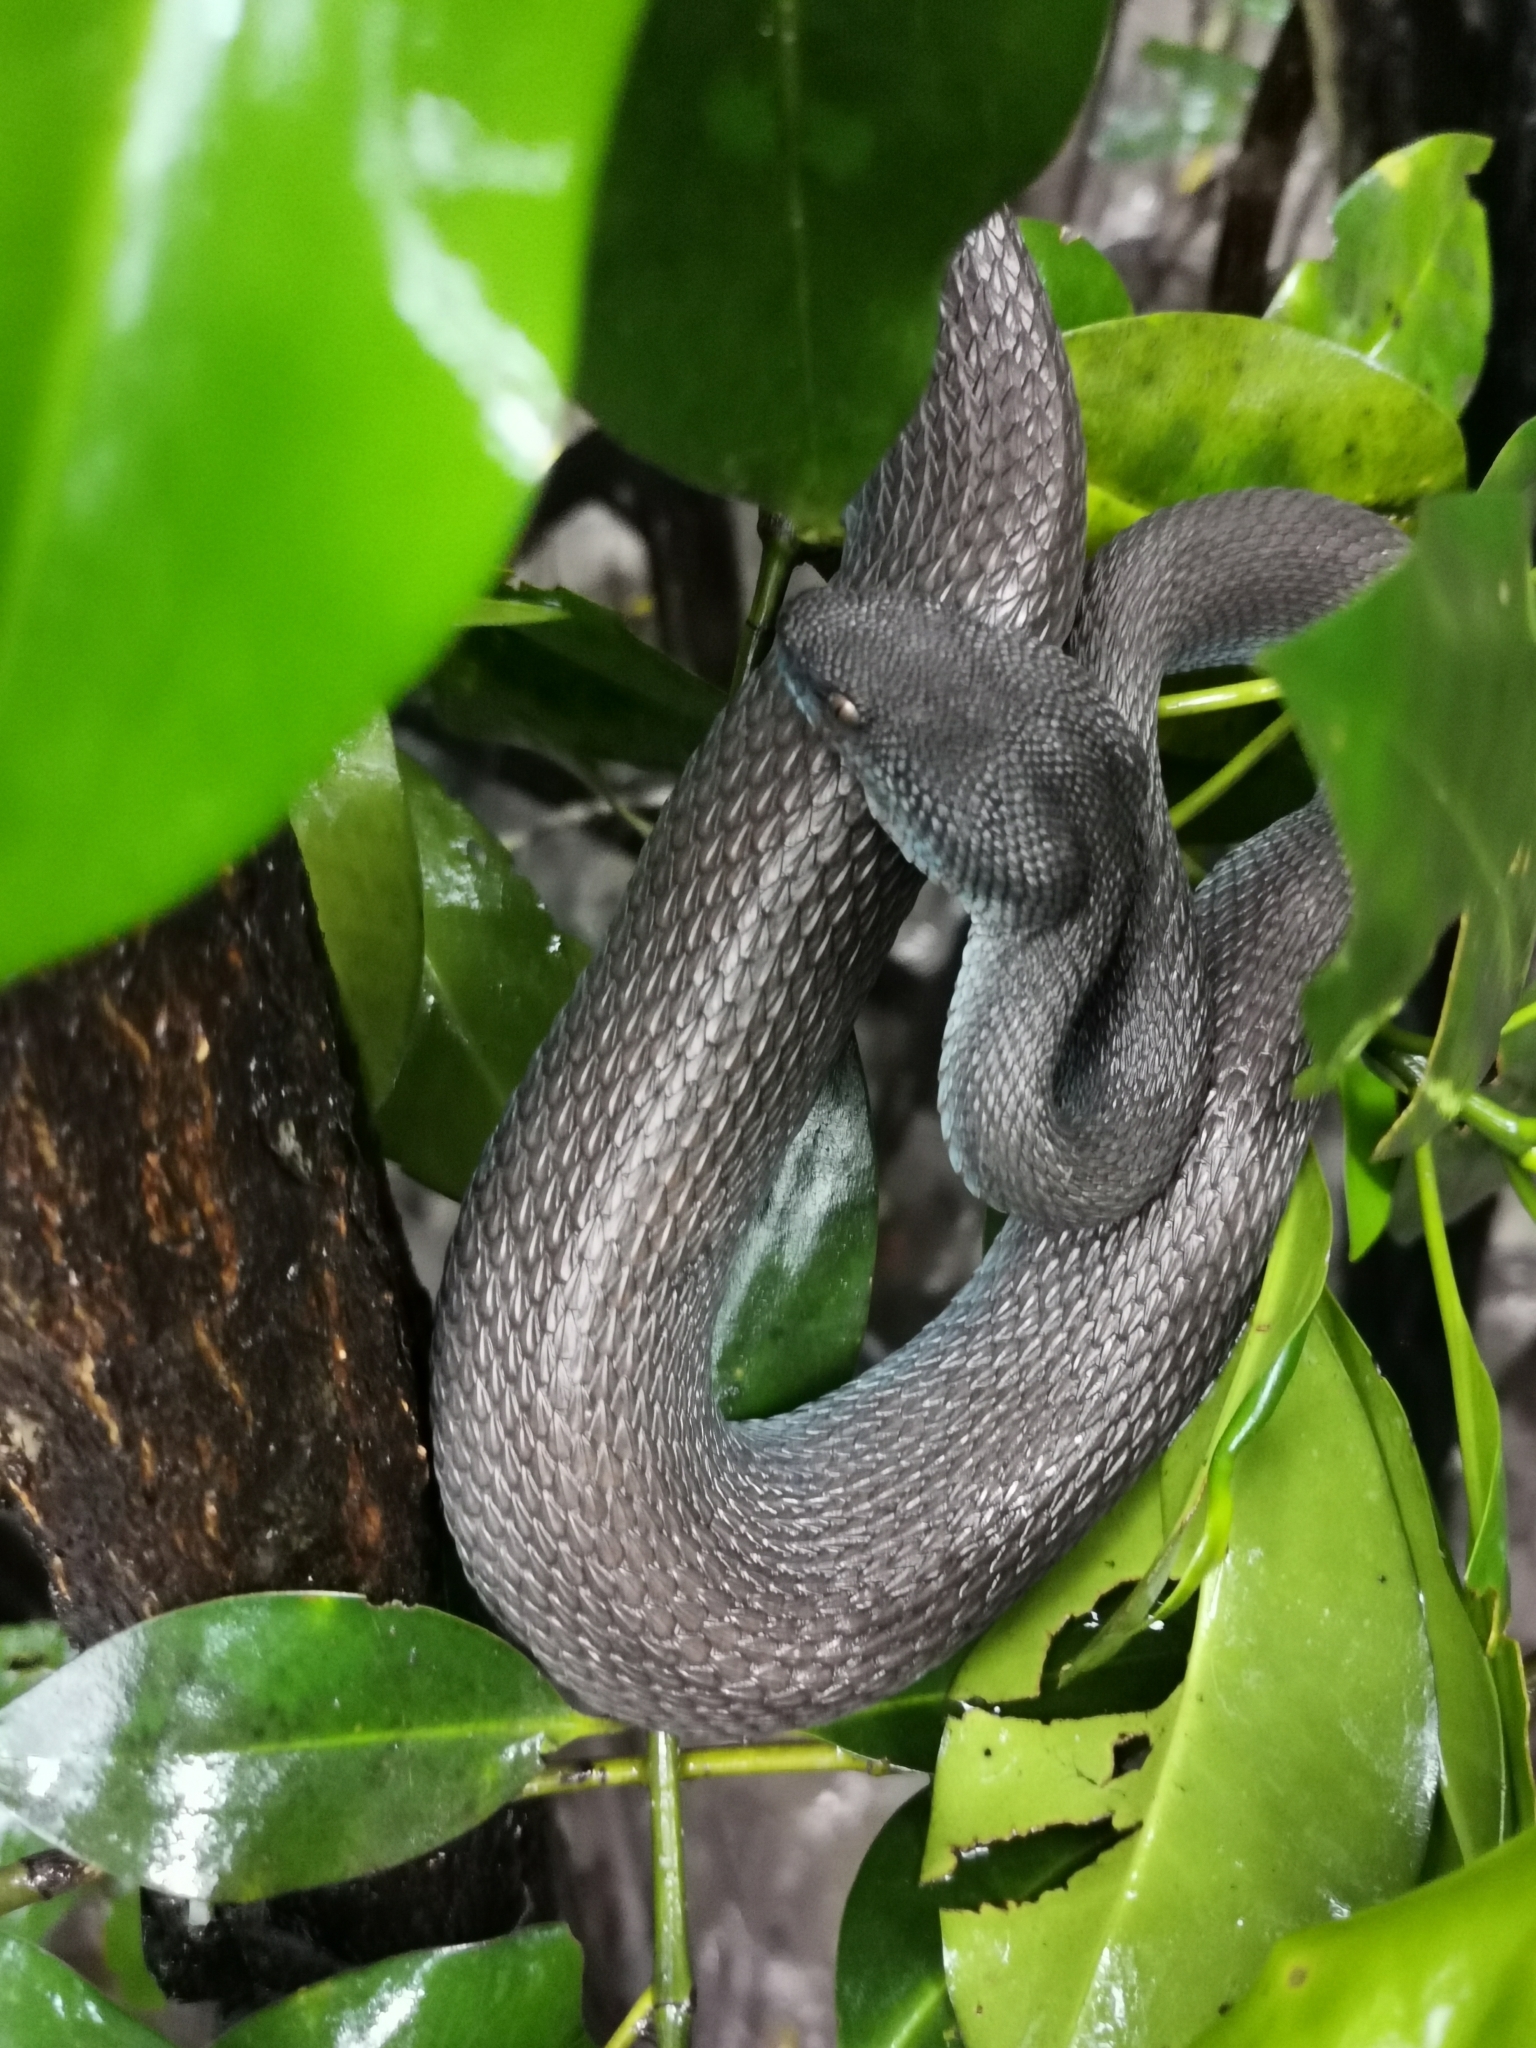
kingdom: Animalia
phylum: Chordata
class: Squamata
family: Viperidae
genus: Trimeresurus
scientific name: Trimeresurus purpureomaculatus
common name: Shore pit viper
